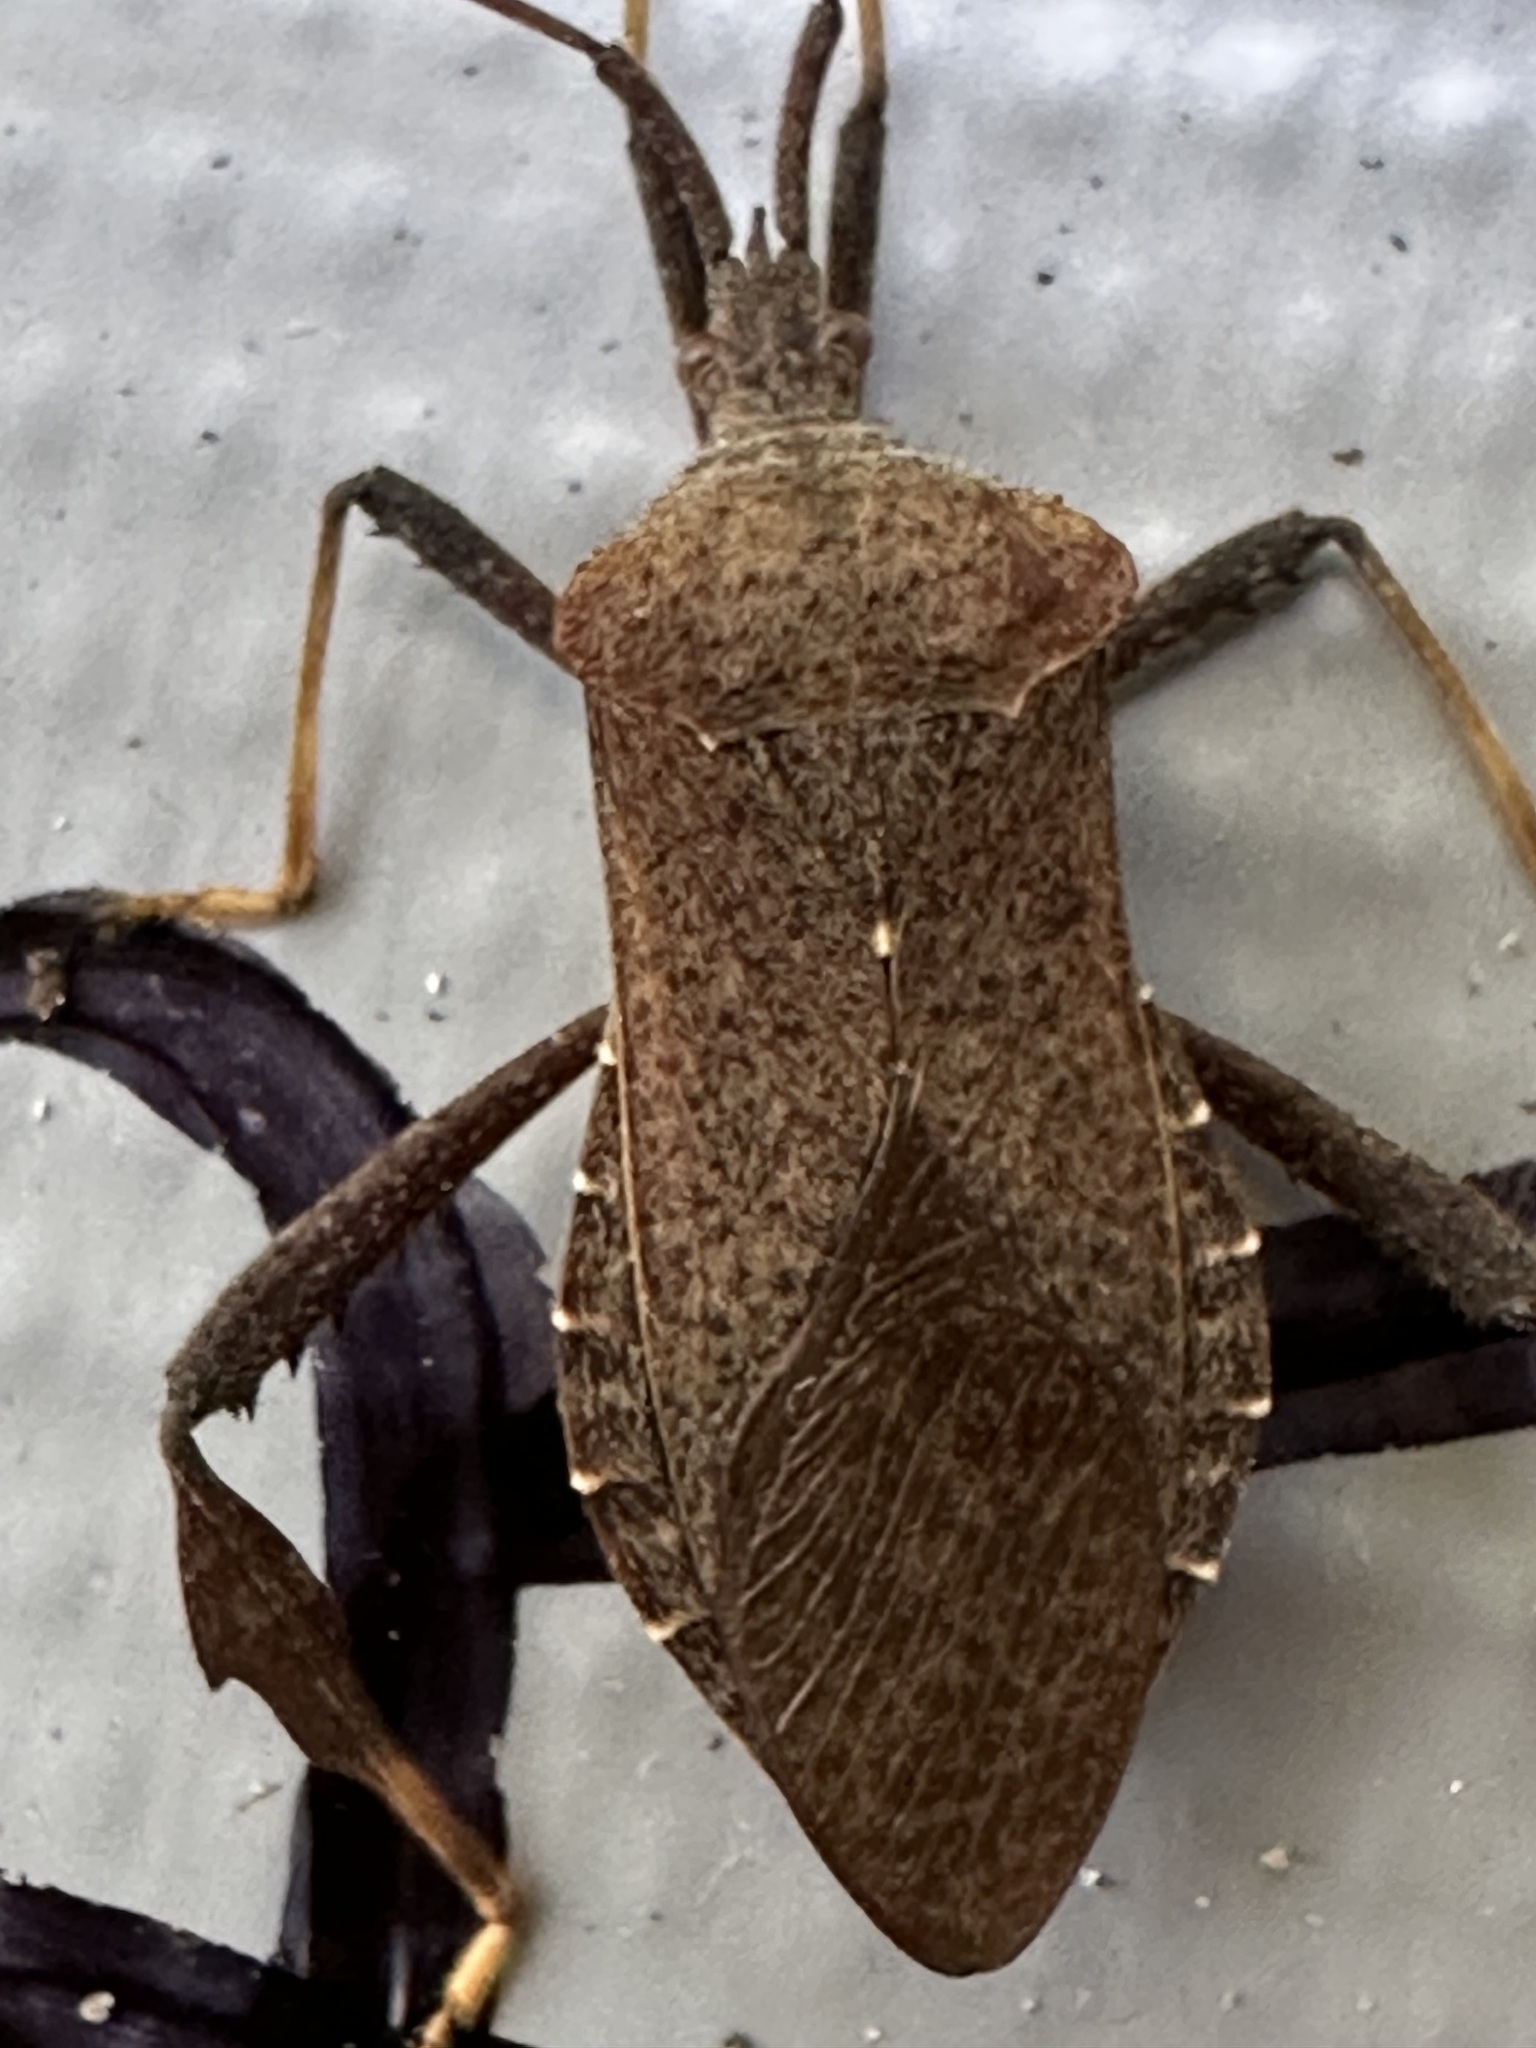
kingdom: Animalia
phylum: Arthropoda
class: Insecta
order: Hemiptera
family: Coreidae
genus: Acanthocephala
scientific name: Acanthocephala terminalis
